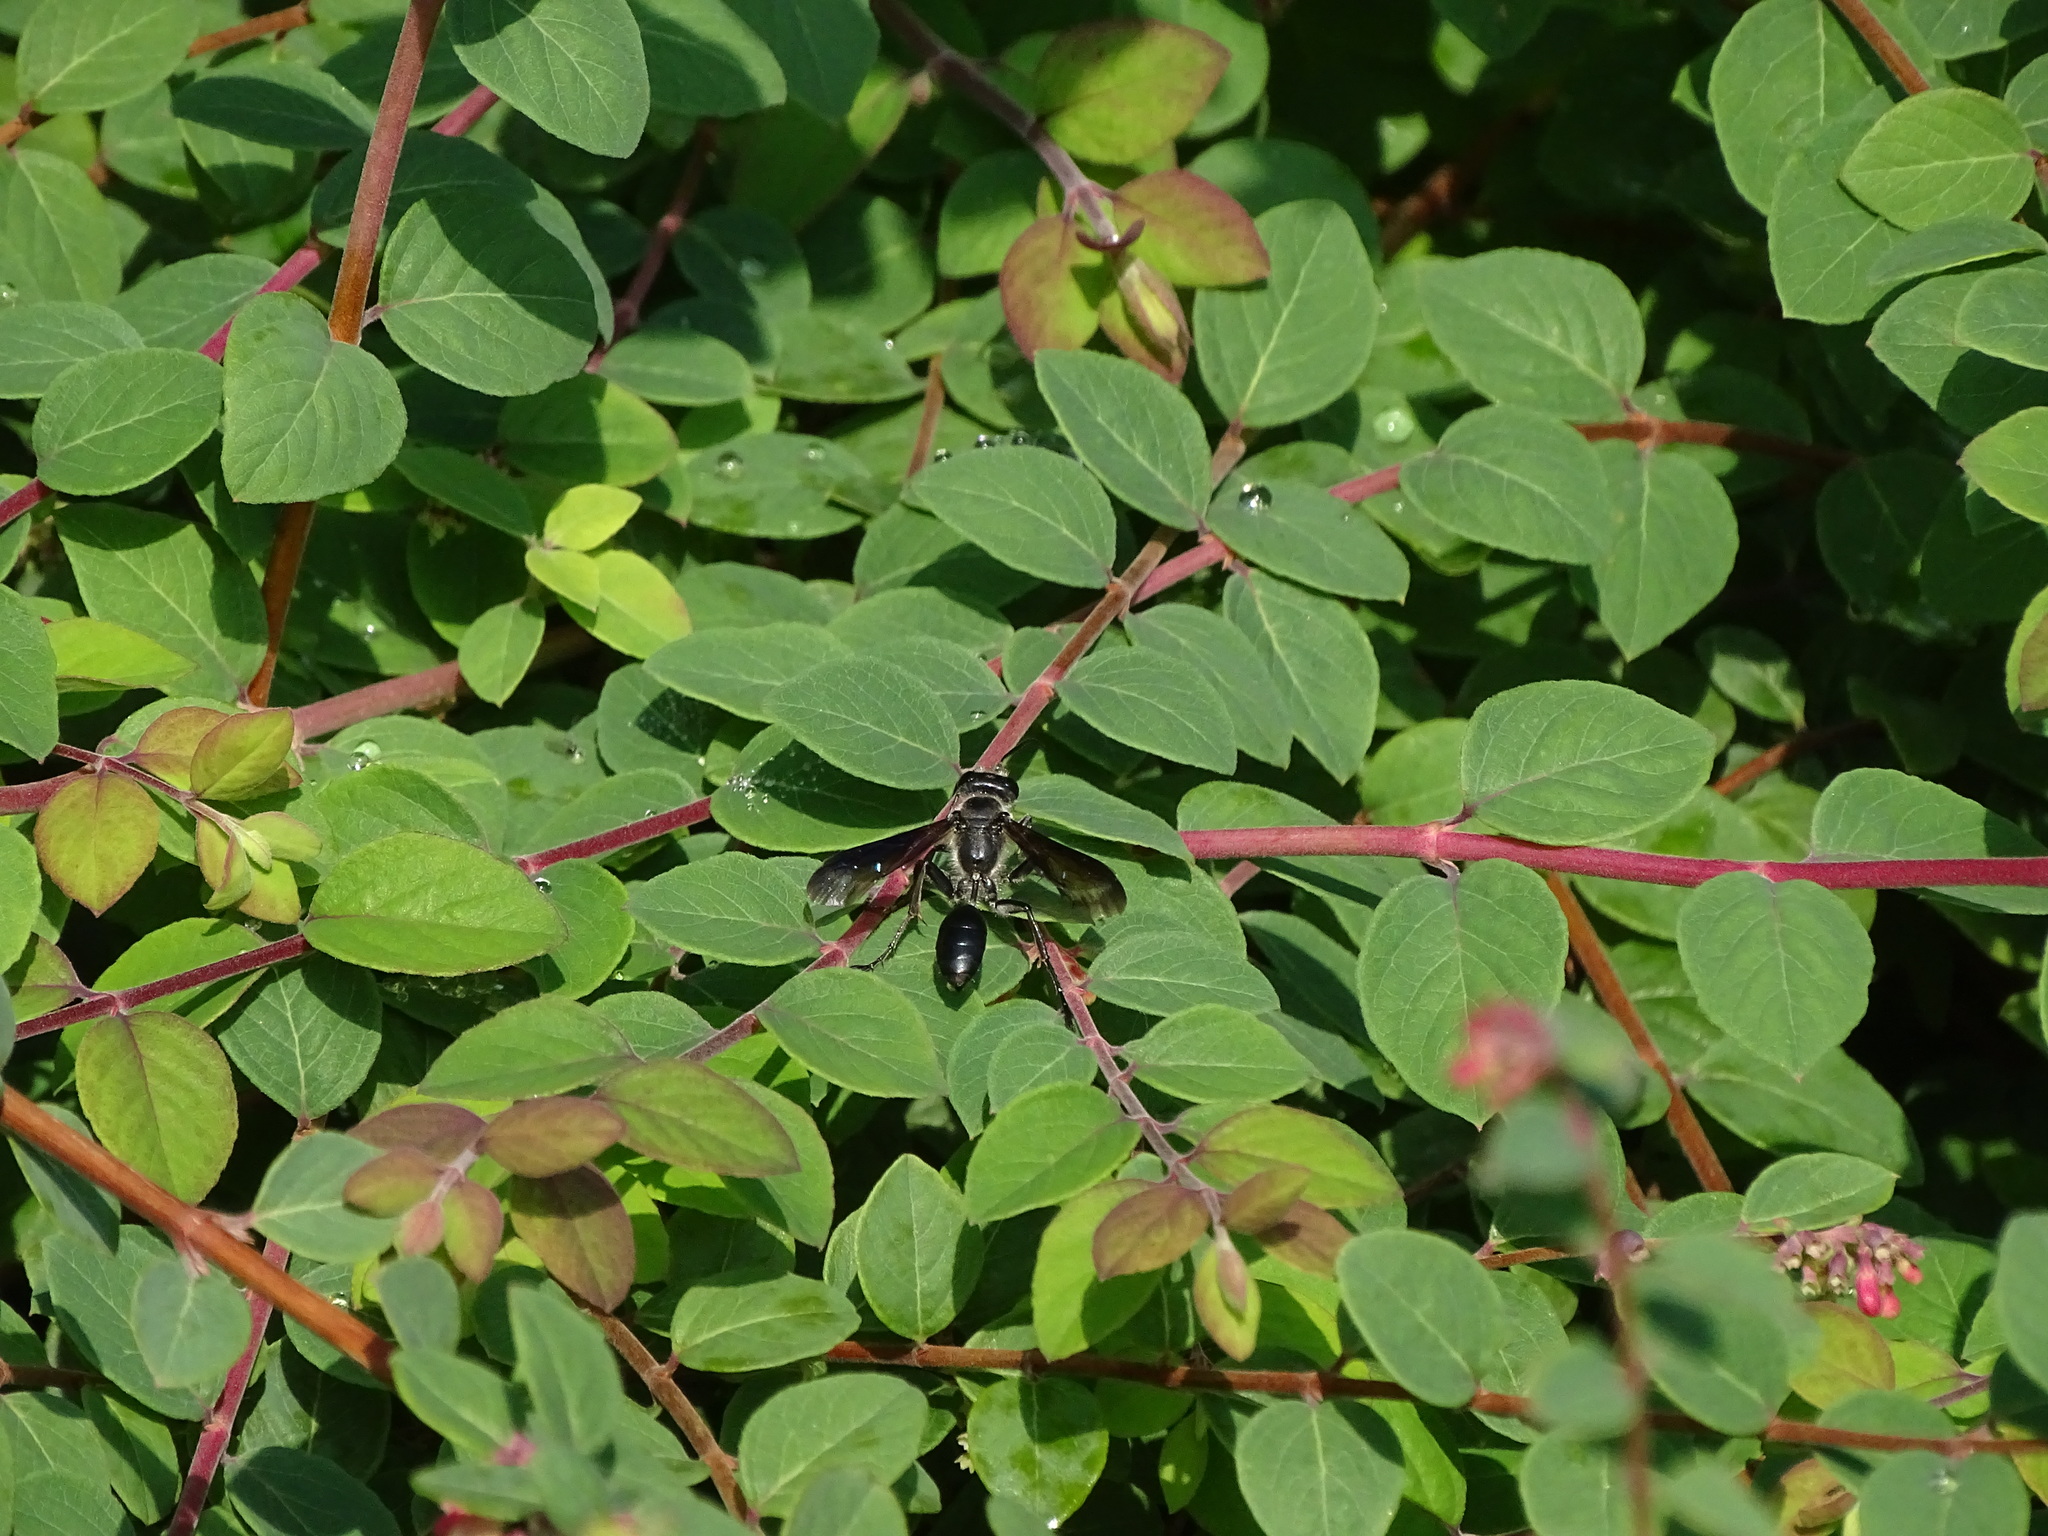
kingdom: Animalia
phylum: Arthropoda
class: Insecta
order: Hymenoptera
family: Sphecidae
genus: Isodontia
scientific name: Isodontia mexicana
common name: Mud dauber
